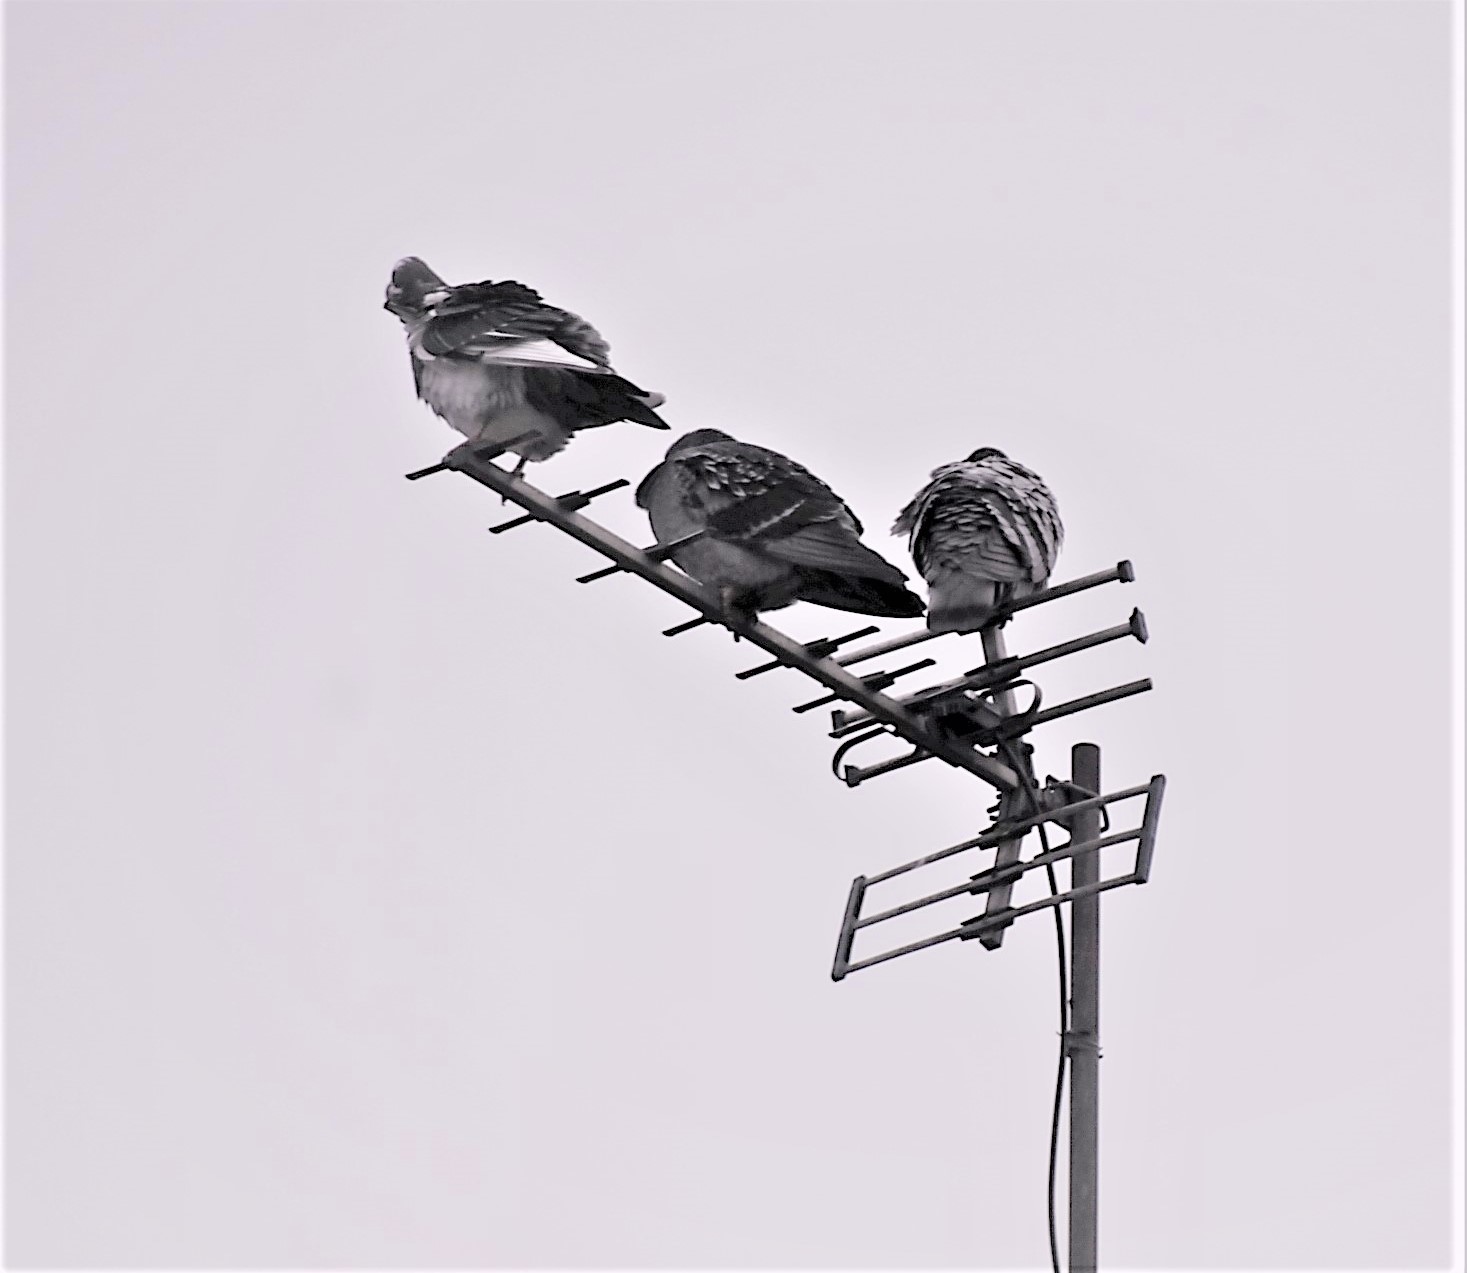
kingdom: Animalia
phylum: Chordata
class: Aves
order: Columbiformes
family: Columbidae
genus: Columba
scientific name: Columba livia
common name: Rock pigeon
